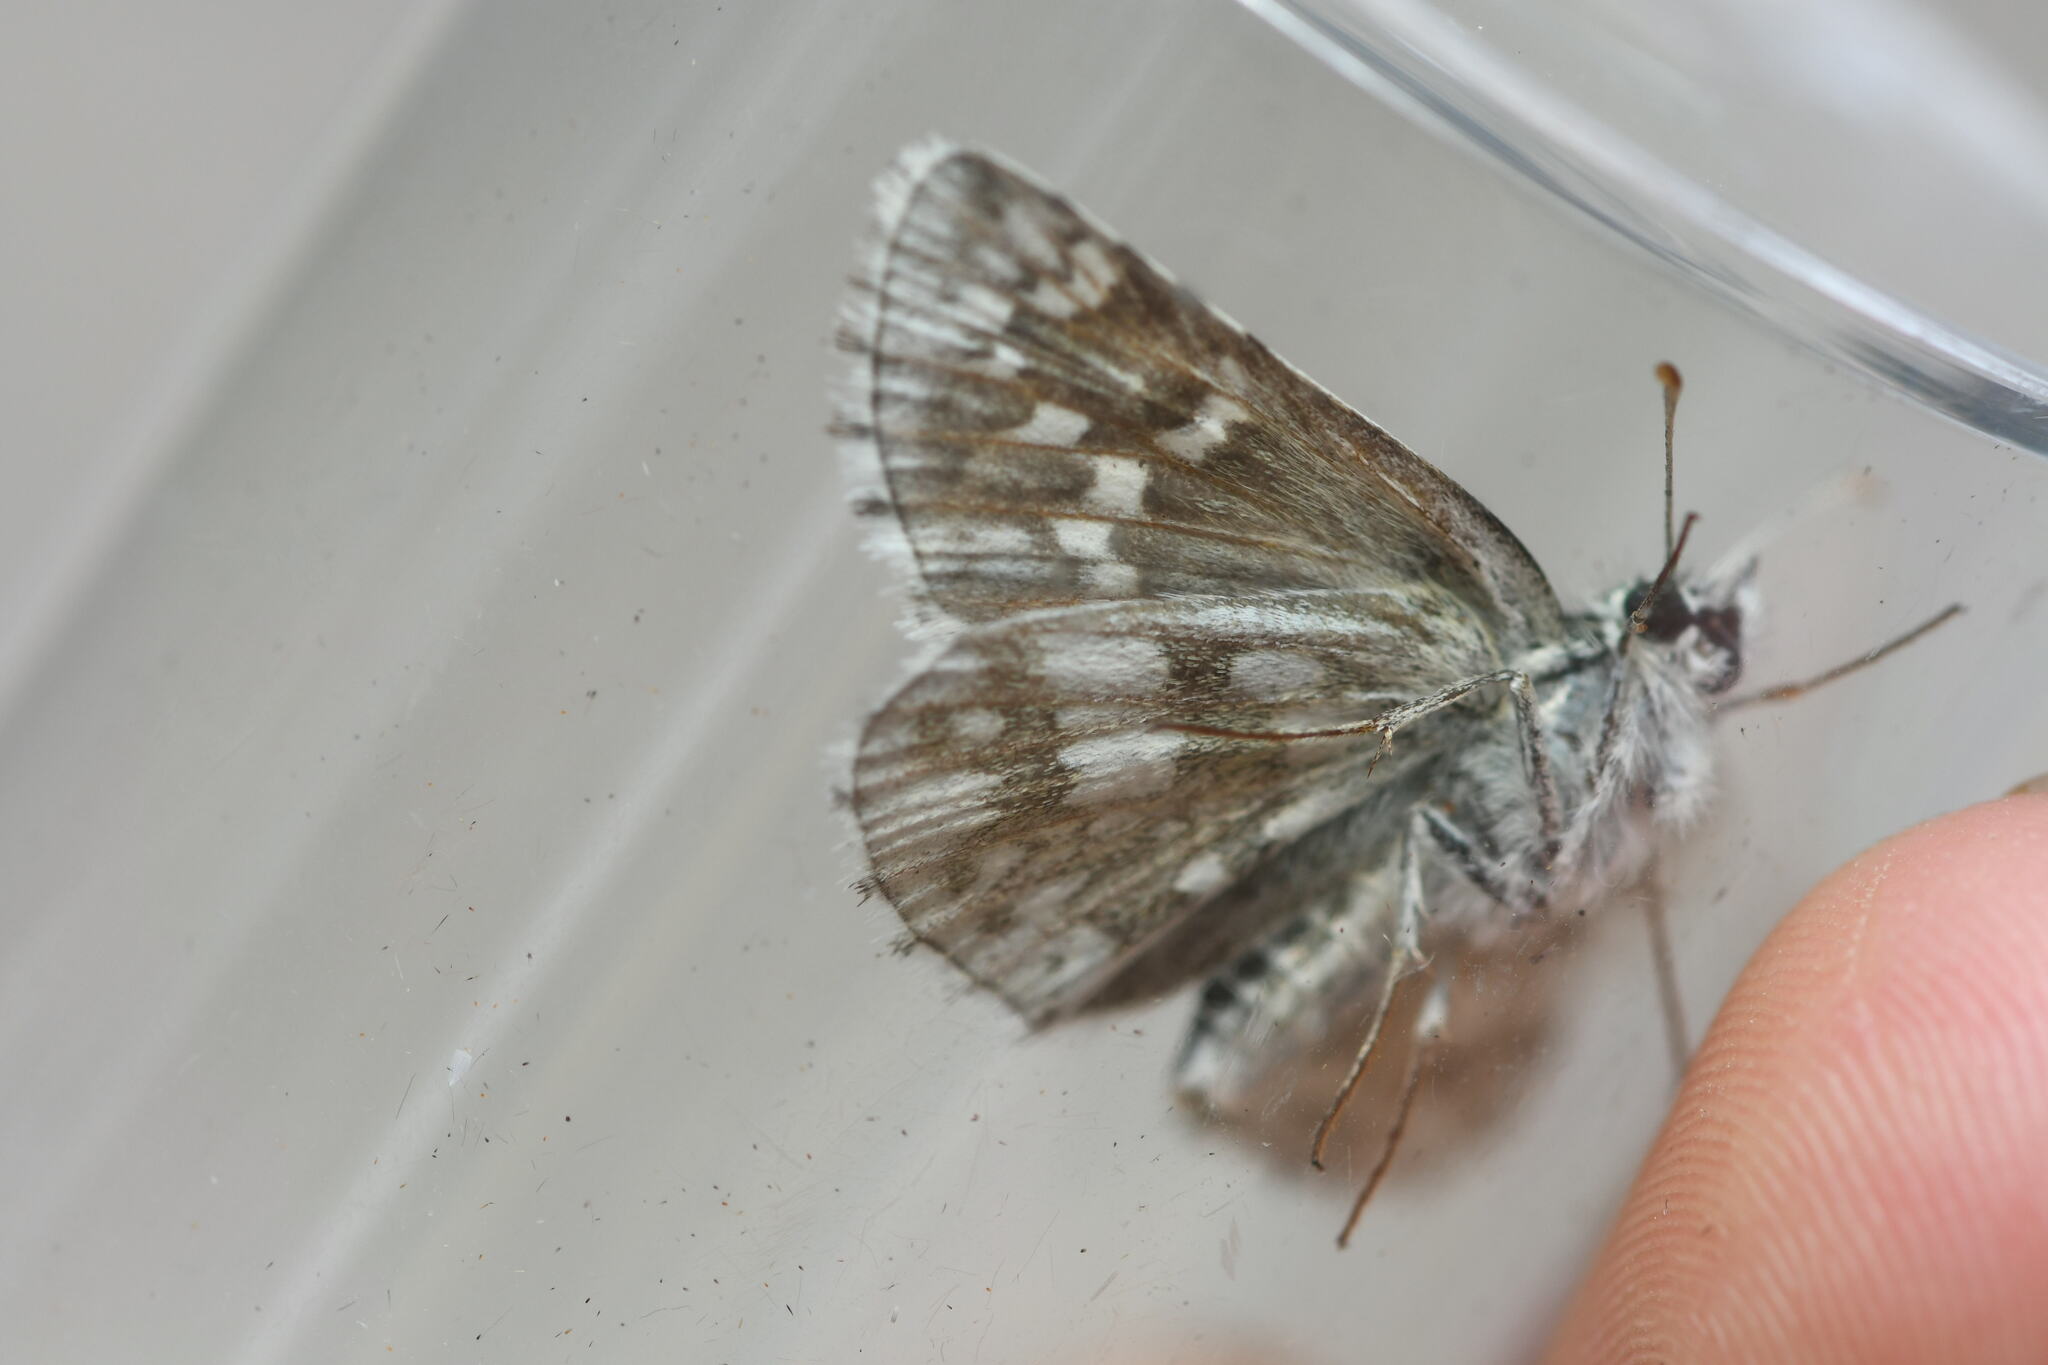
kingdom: Animalia
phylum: Arthropoda
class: Insecta
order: Lepidoptera
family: Hesperiidae
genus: Pyrgus
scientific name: Pyrgus fritillarius
